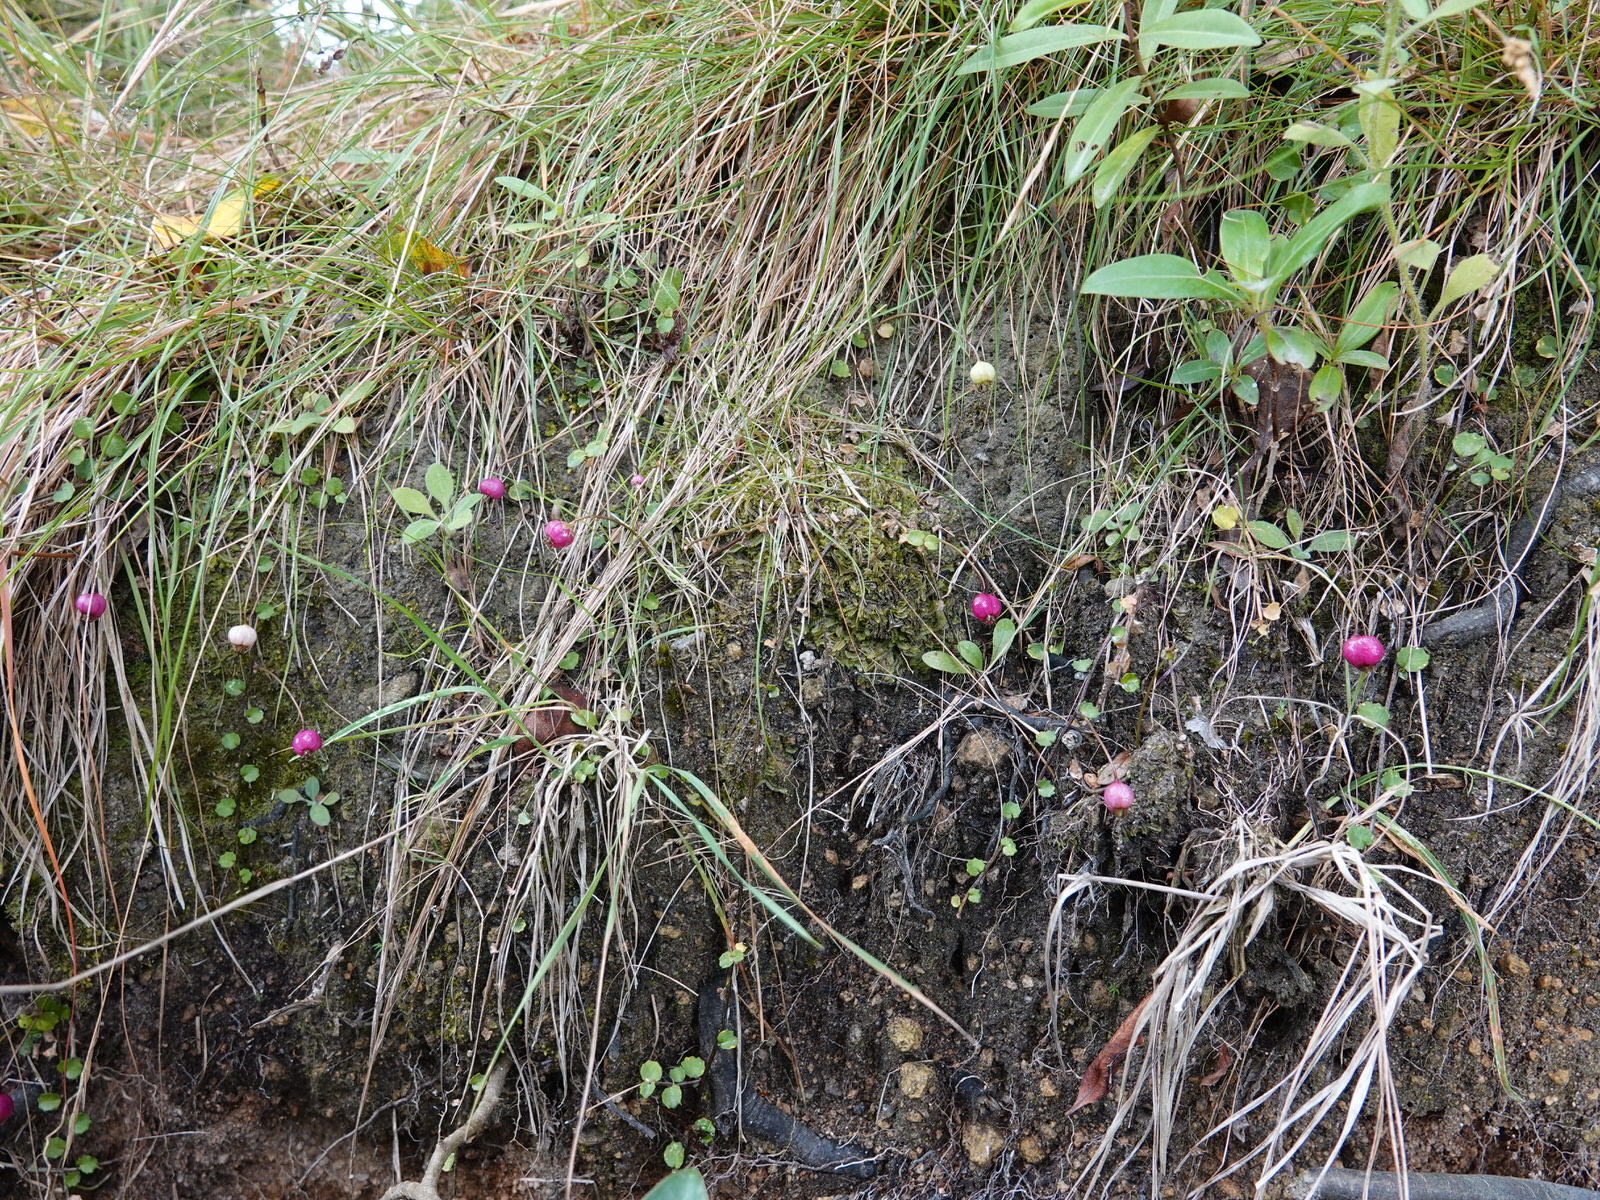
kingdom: Plantae
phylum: Tracheophyta
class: Magnoliopsida
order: Asterales
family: Campanulaceae
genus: Lobelia
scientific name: Lobelia angulata
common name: Lawn lobelia
